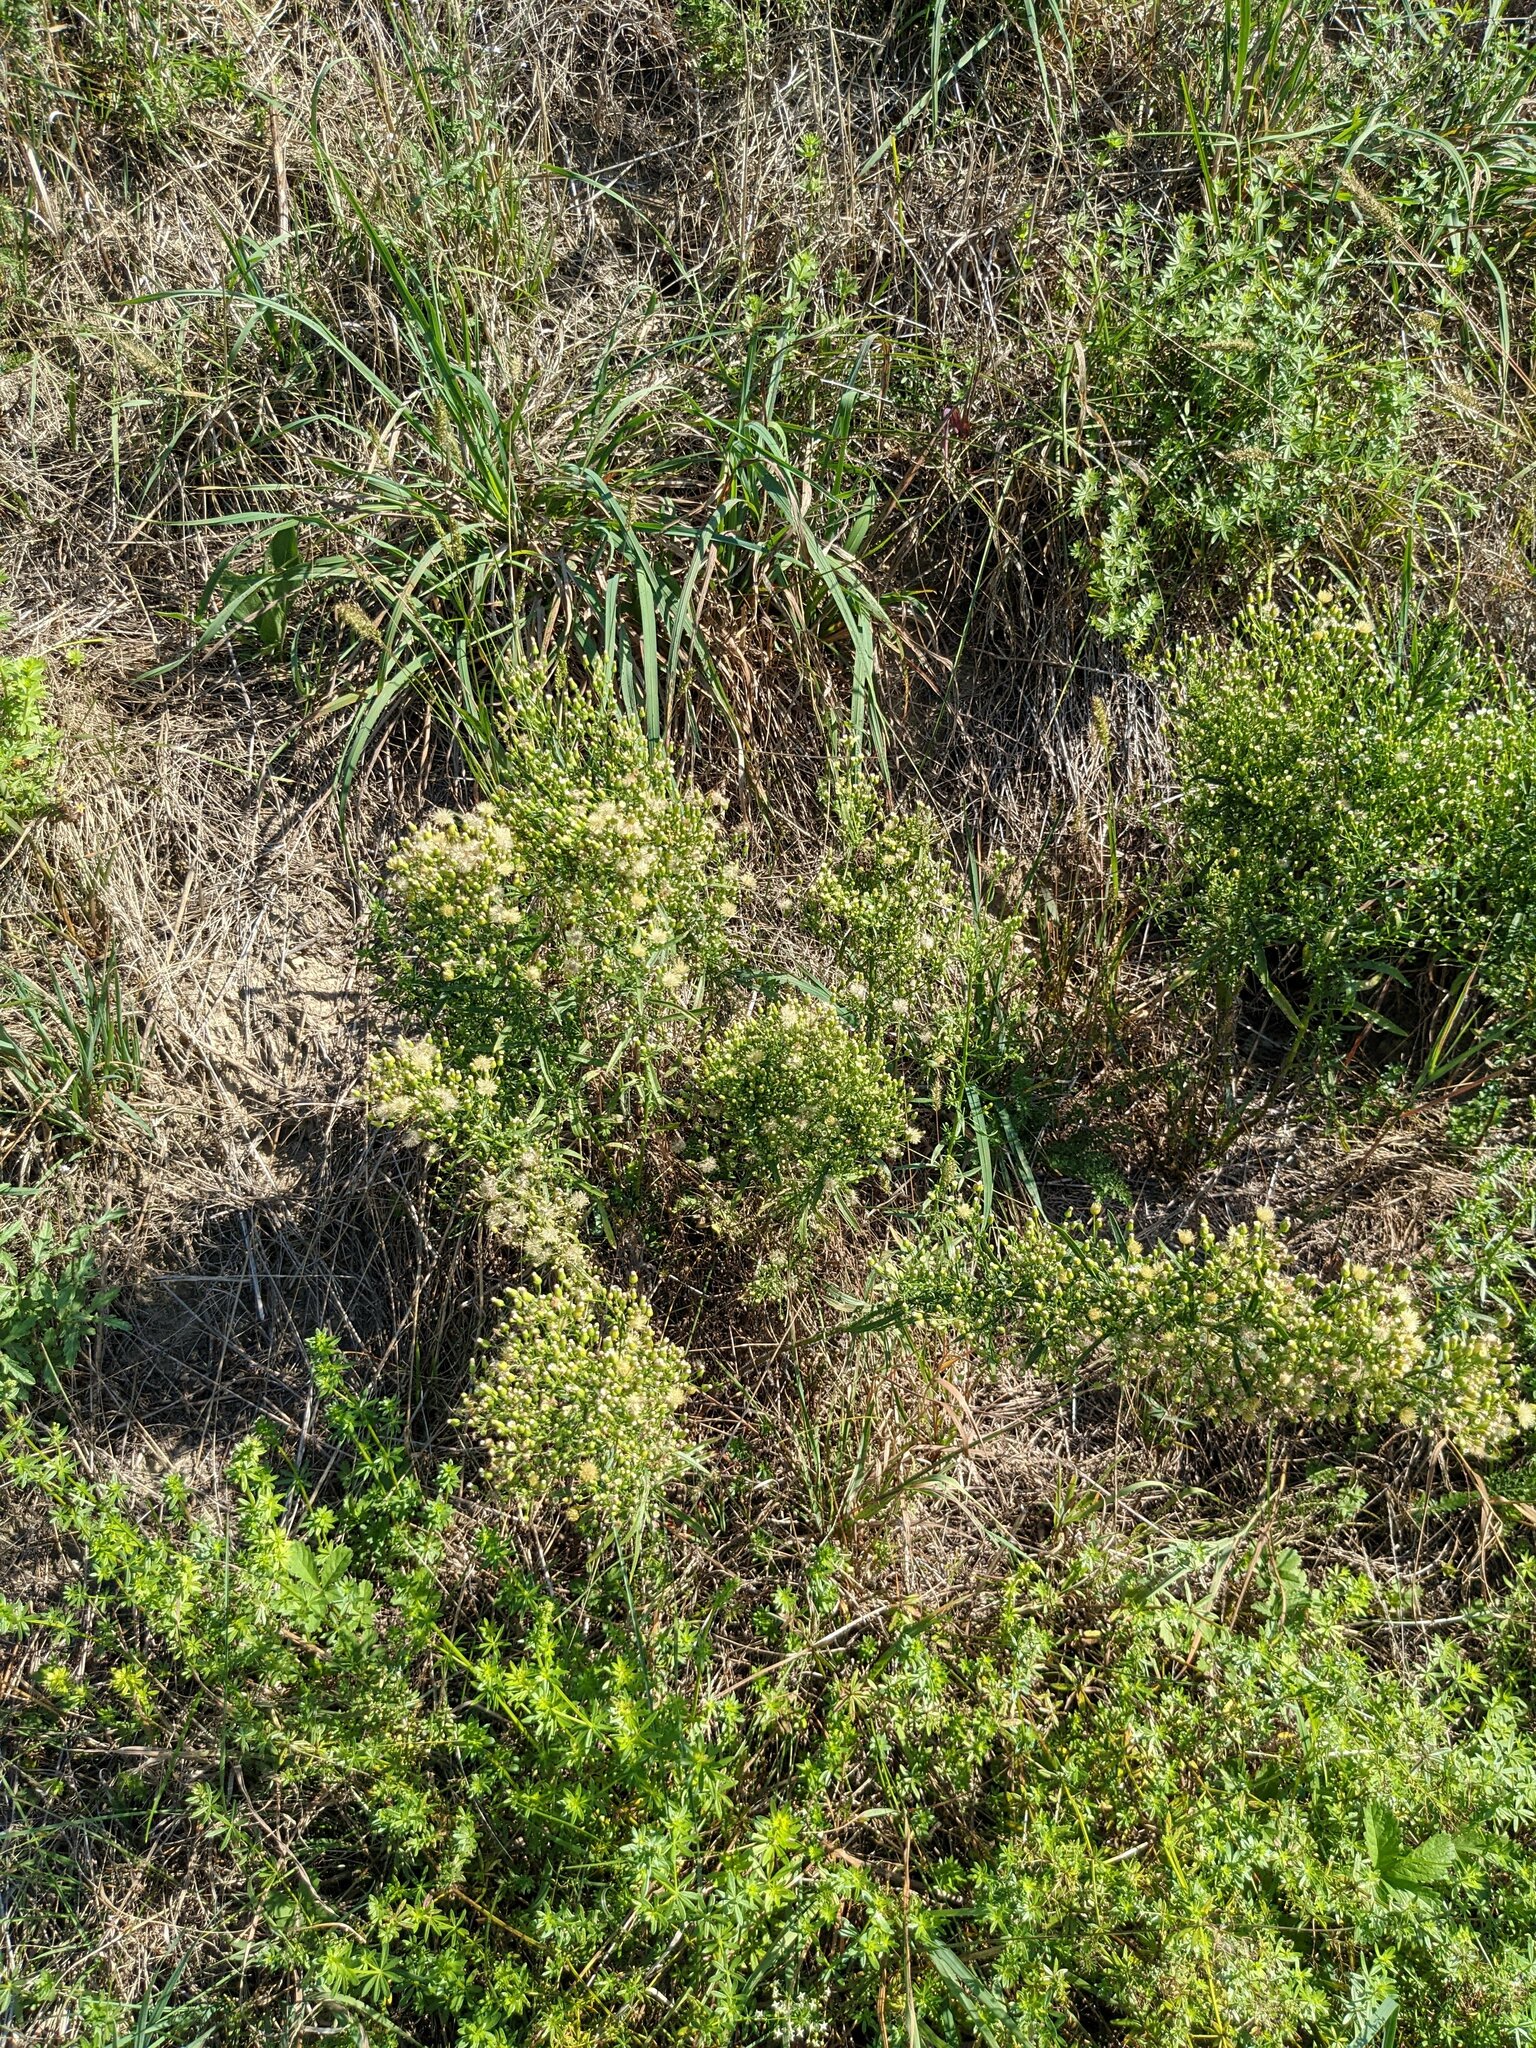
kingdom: Plantae
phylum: Tracheophyta
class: Magnoliopsida
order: Asterales
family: Asteraceae
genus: Erigeron
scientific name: Erigeron canadensis
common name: Canadian fleabane
